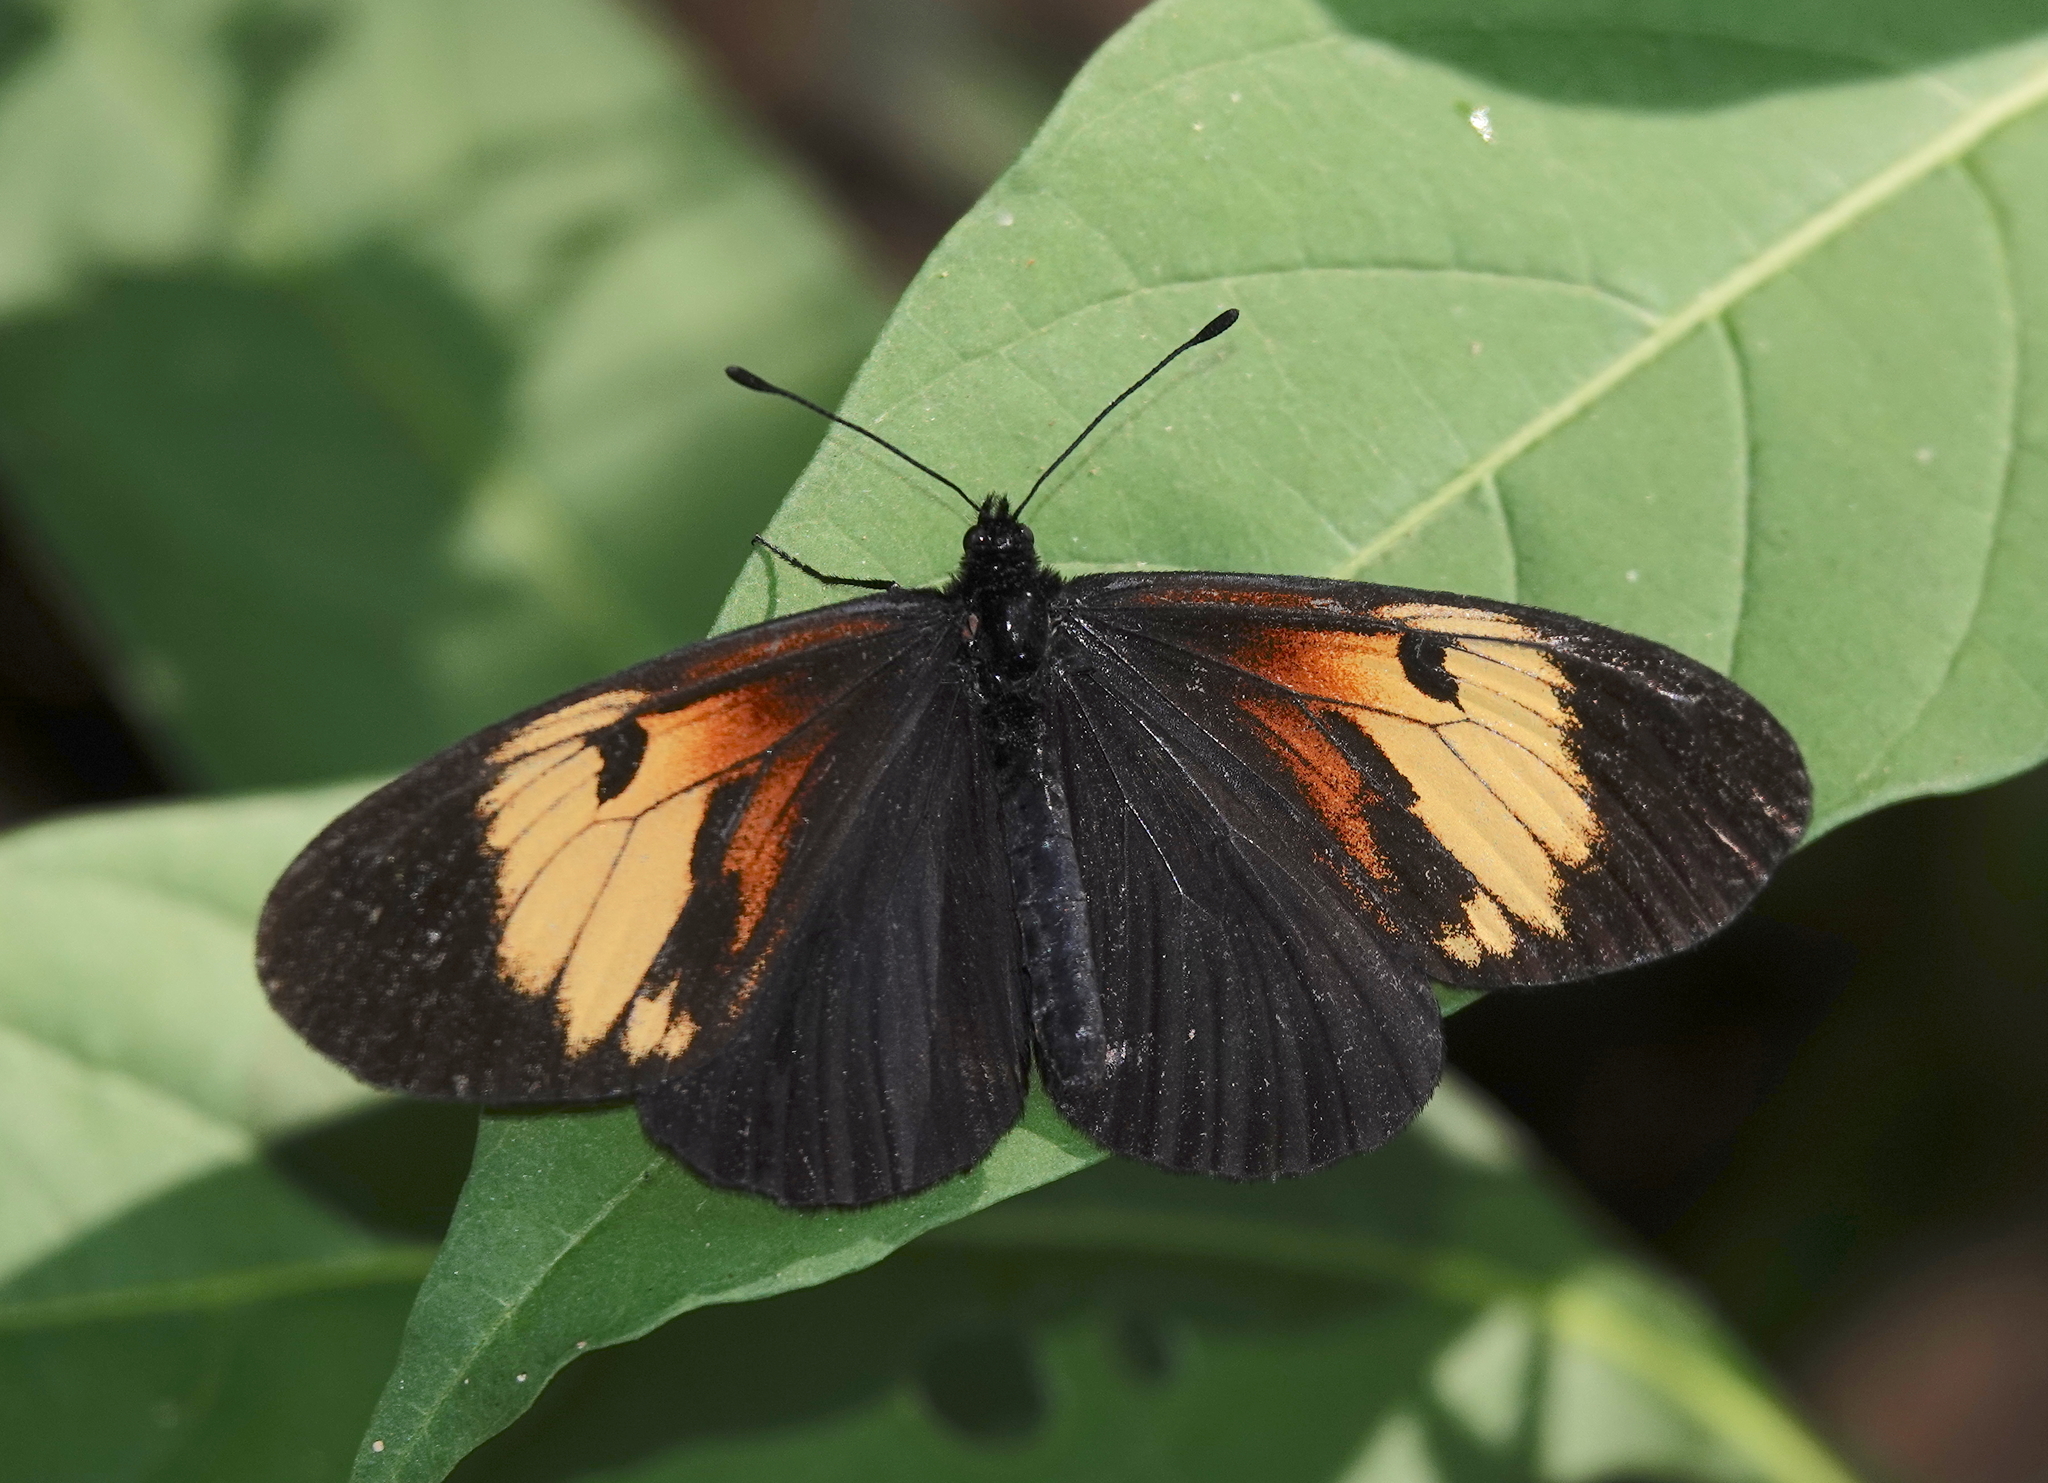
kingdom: Animalia
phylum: Arthropoda
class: Insecta
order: Lepidoptera
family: Nymphalidae
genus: Actinote
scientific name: Actinote stratonice
